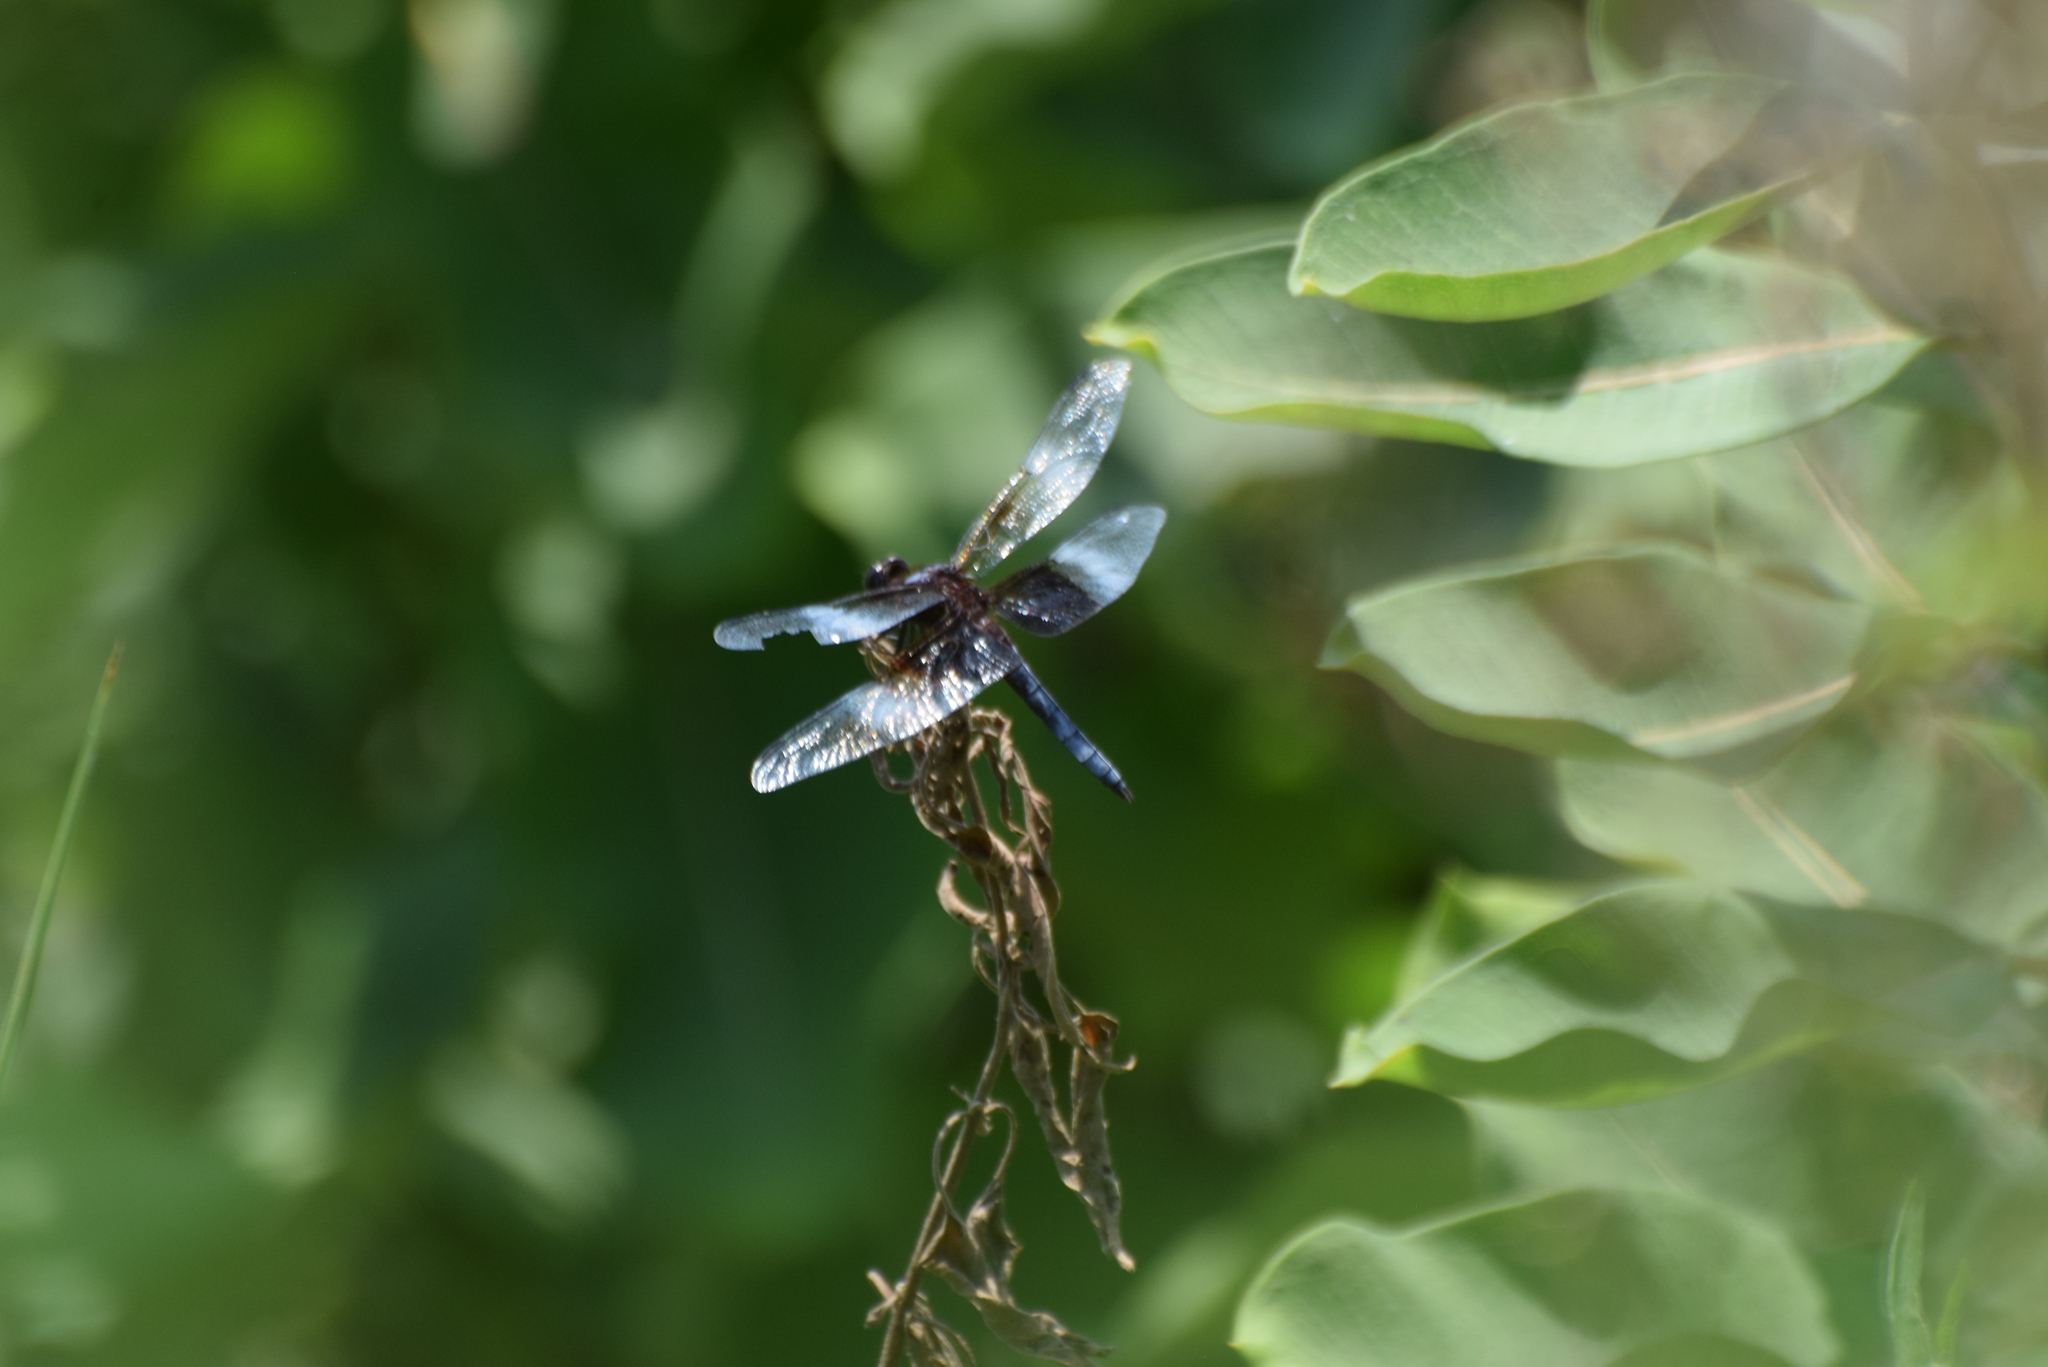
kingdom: Animalia
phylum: Arthropoda
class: Insecta
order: Odonata
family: Libellulidae
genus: Libellula
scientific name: Libellula luctuosa
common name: Widow skimmer
